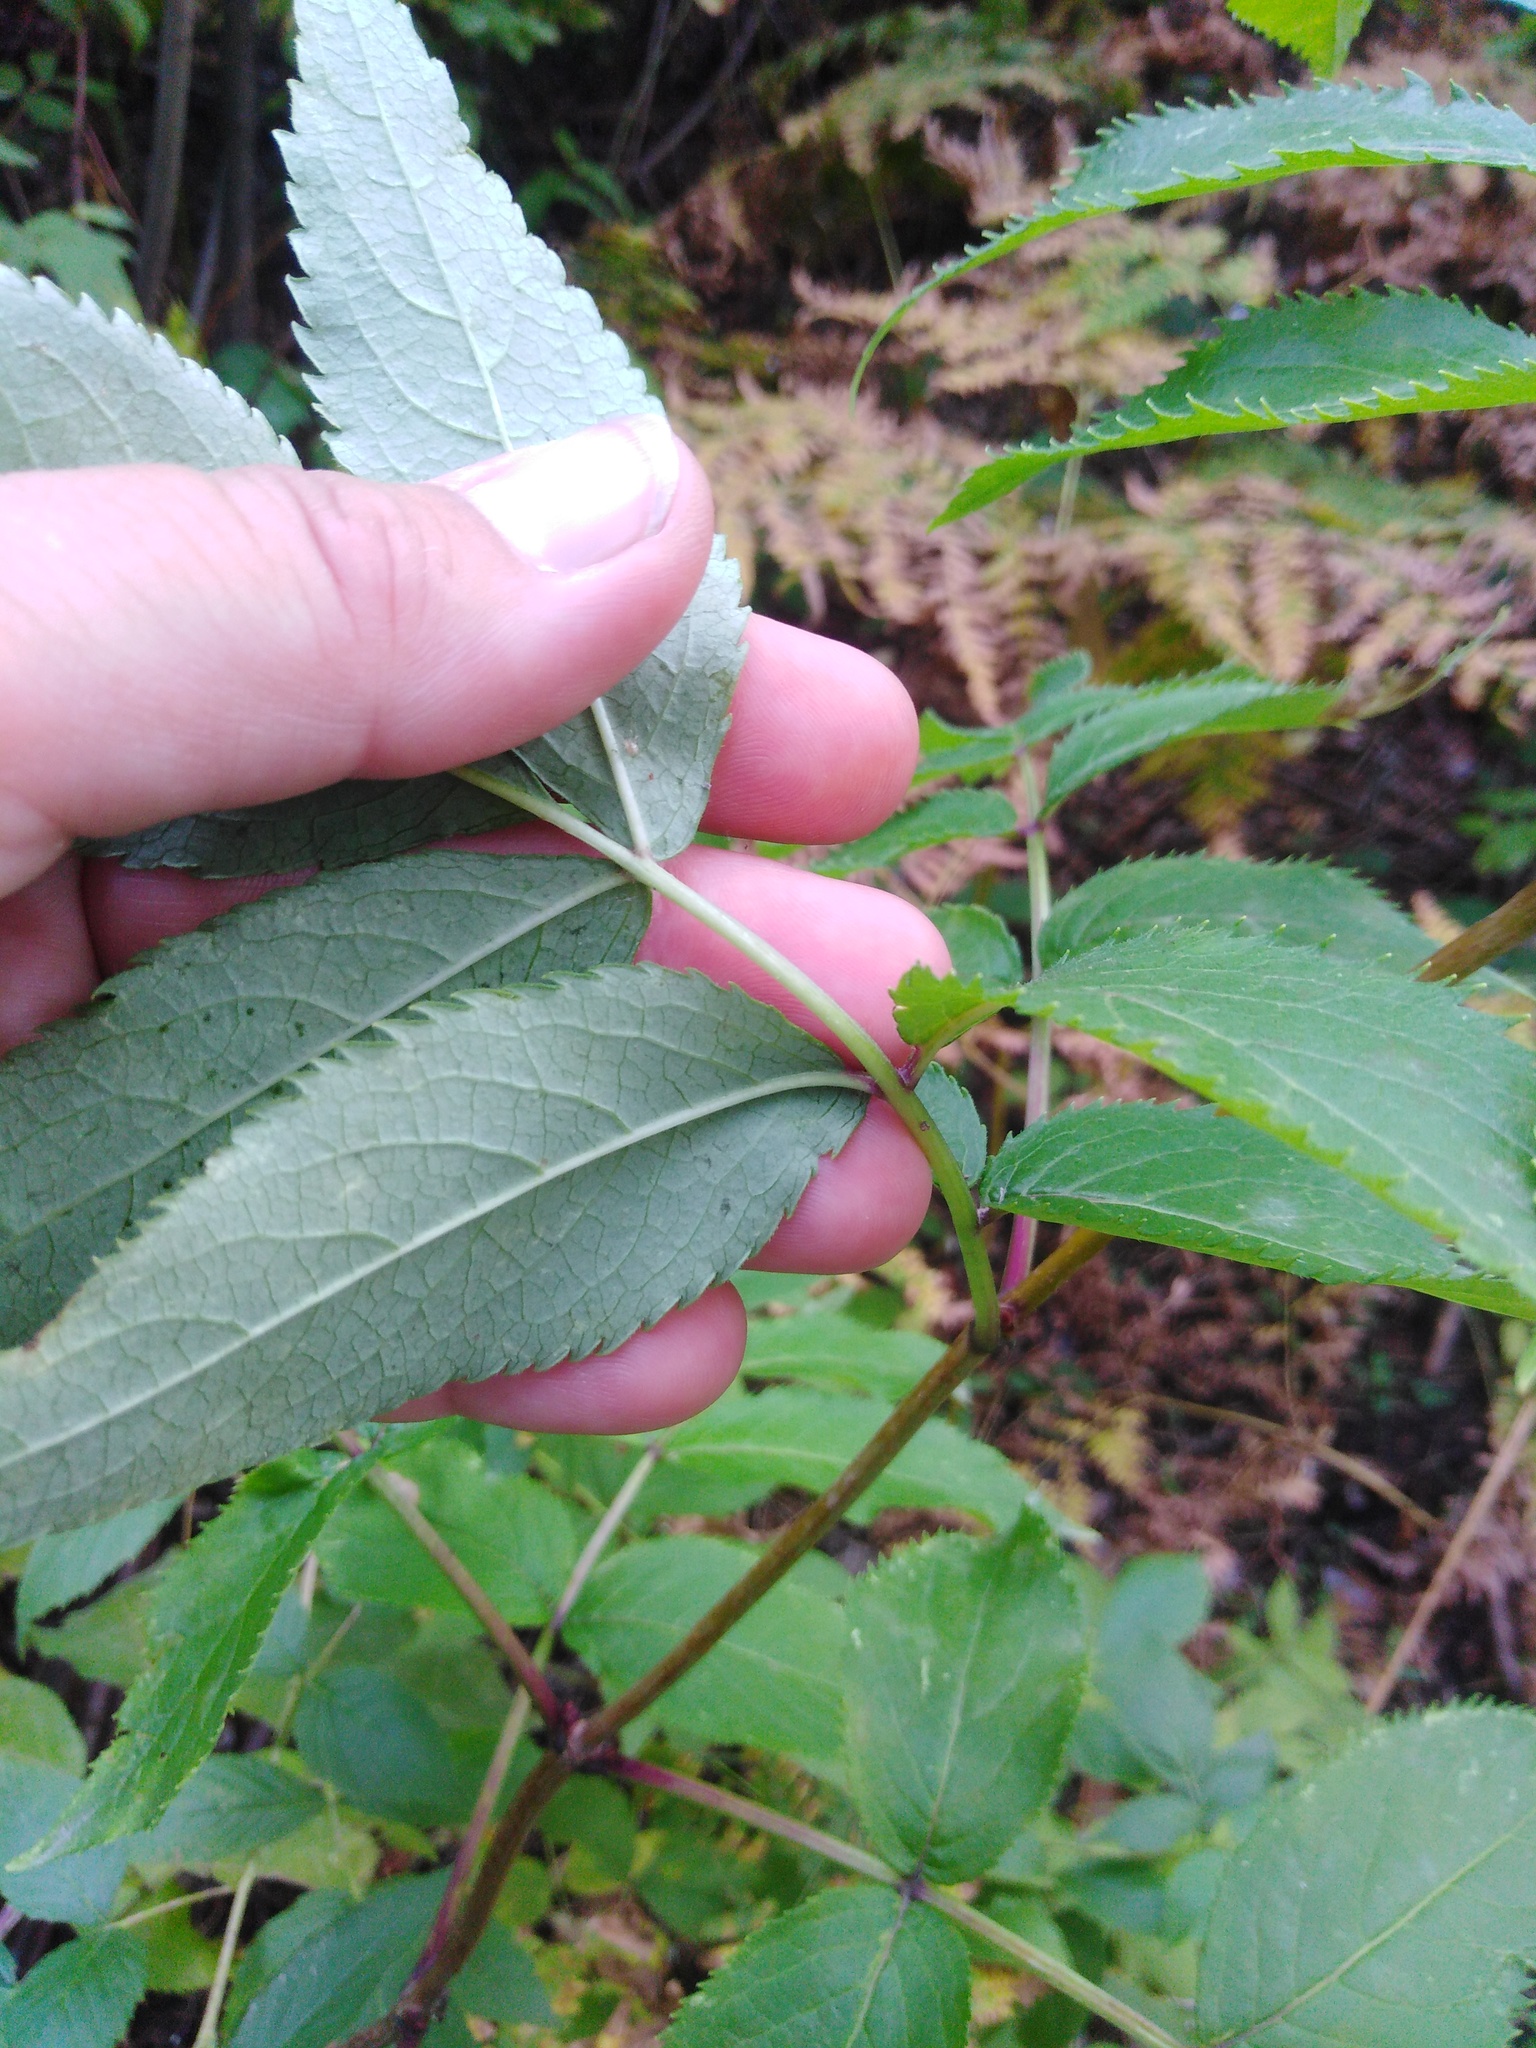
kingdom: Plantae
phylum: Tracheophyta
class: Magnoliopsida
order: Dipsacales
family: Viburnaceae
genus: Sambucus
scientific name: Sambucus racemosa
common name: Red-berried elder
